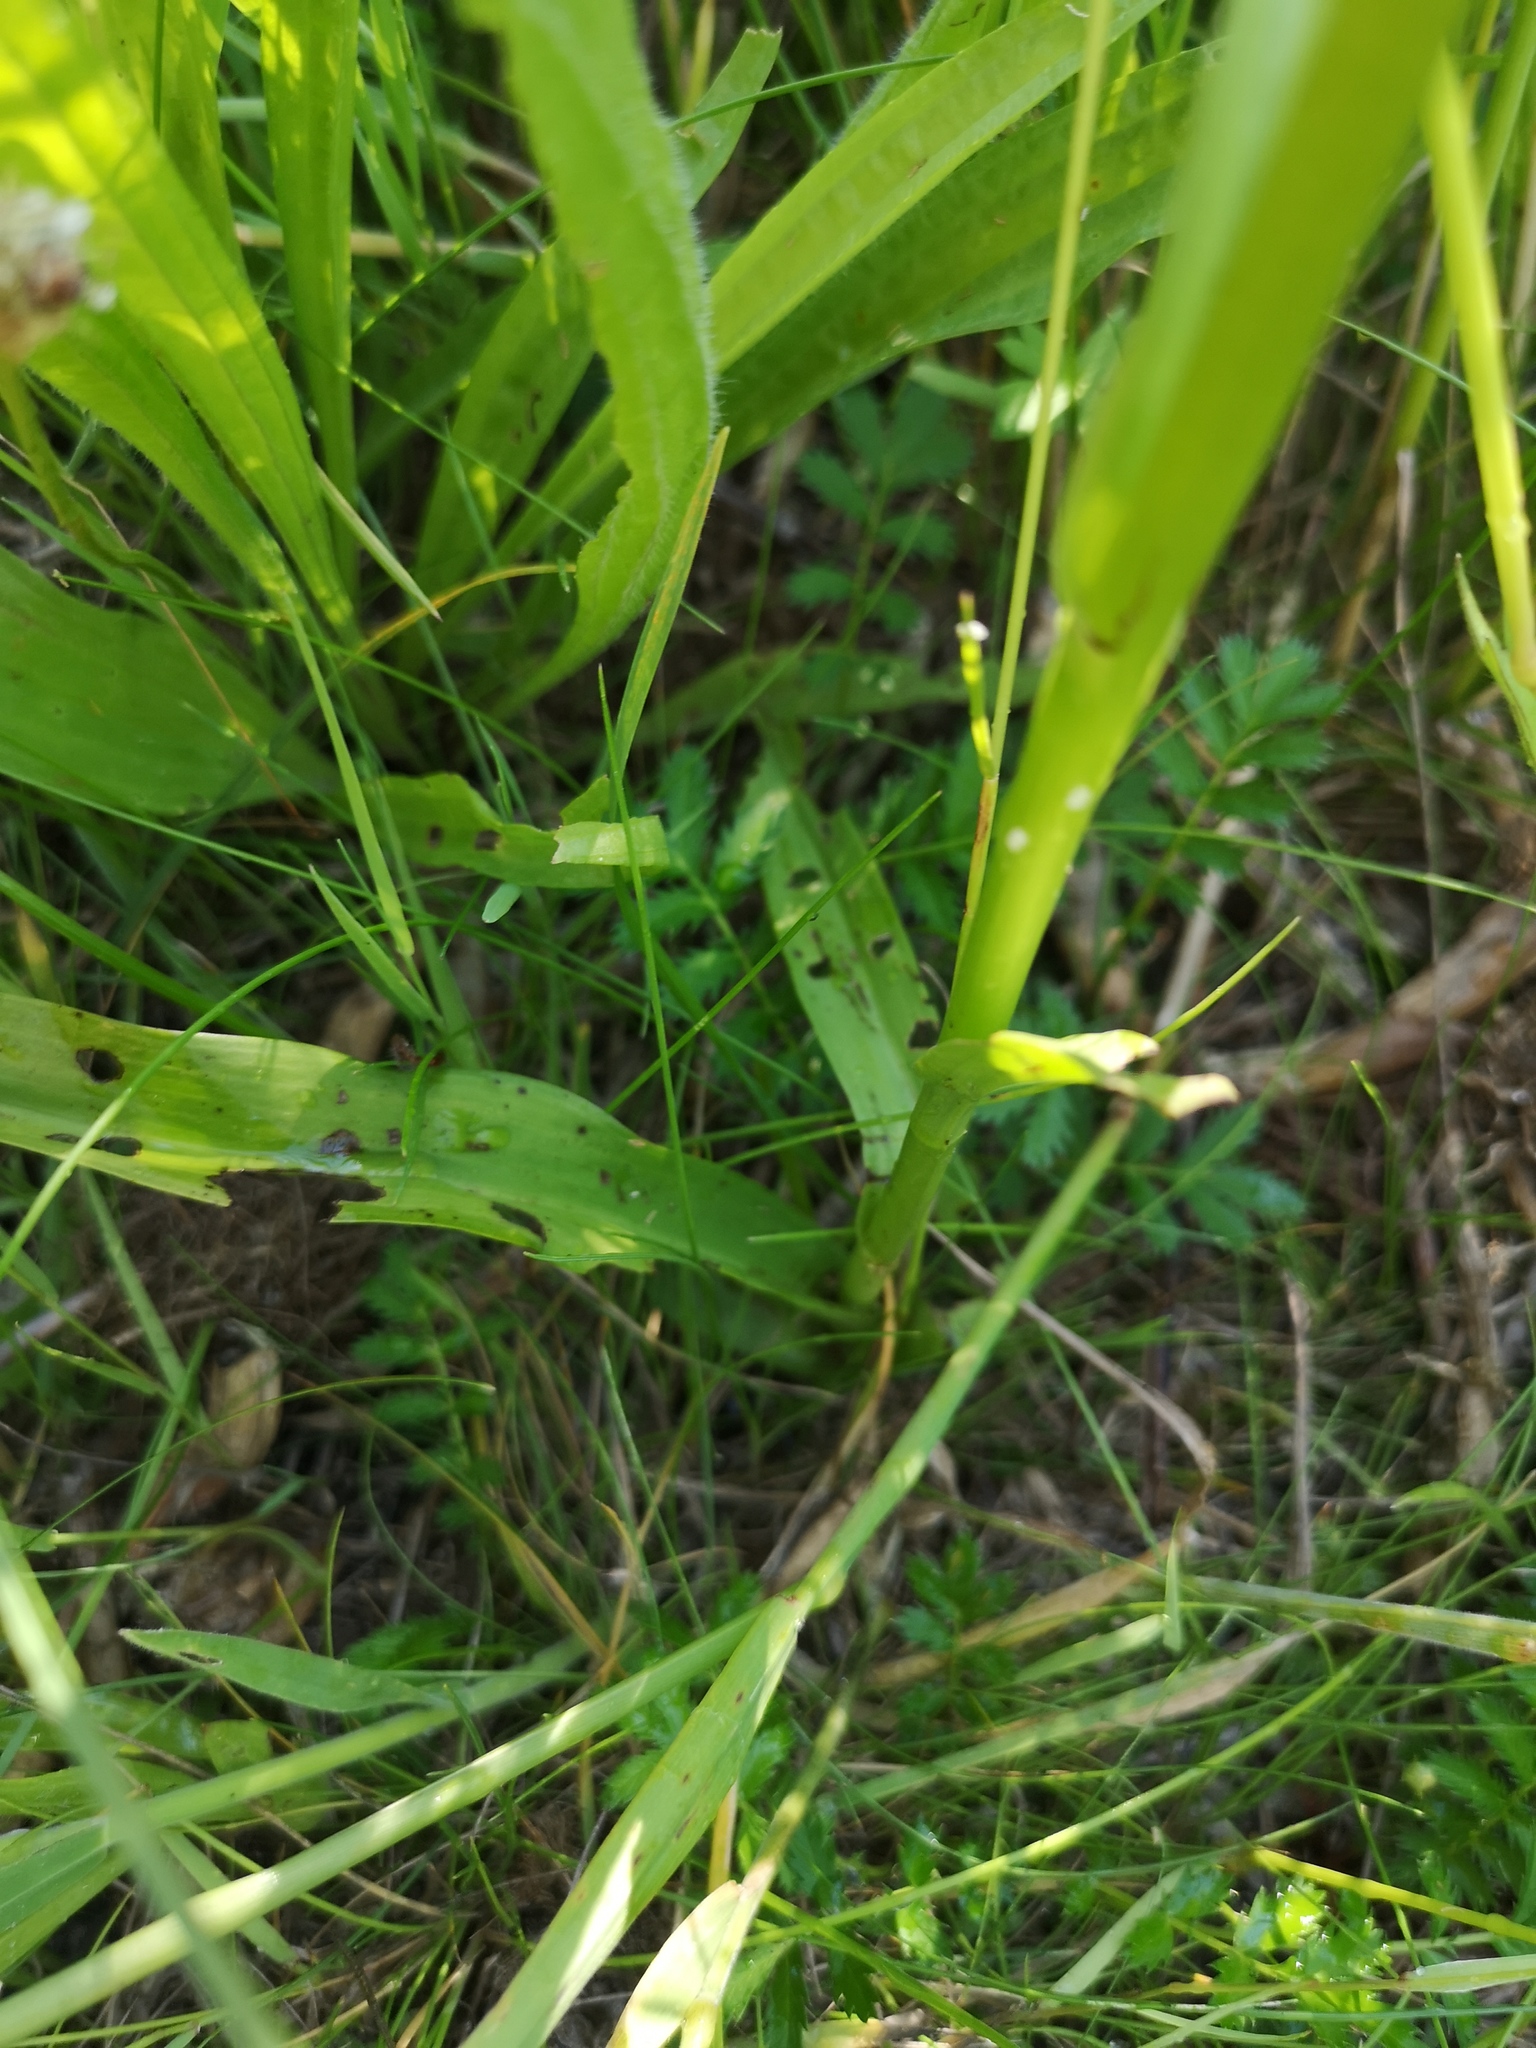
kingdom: Plantae
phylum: Tracheophyta
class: Liliopsida
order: Asparagales
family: Orchidaceae
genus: Dactylorhiza
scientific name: Dactylorhiza majalis
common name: Marsh orchid
